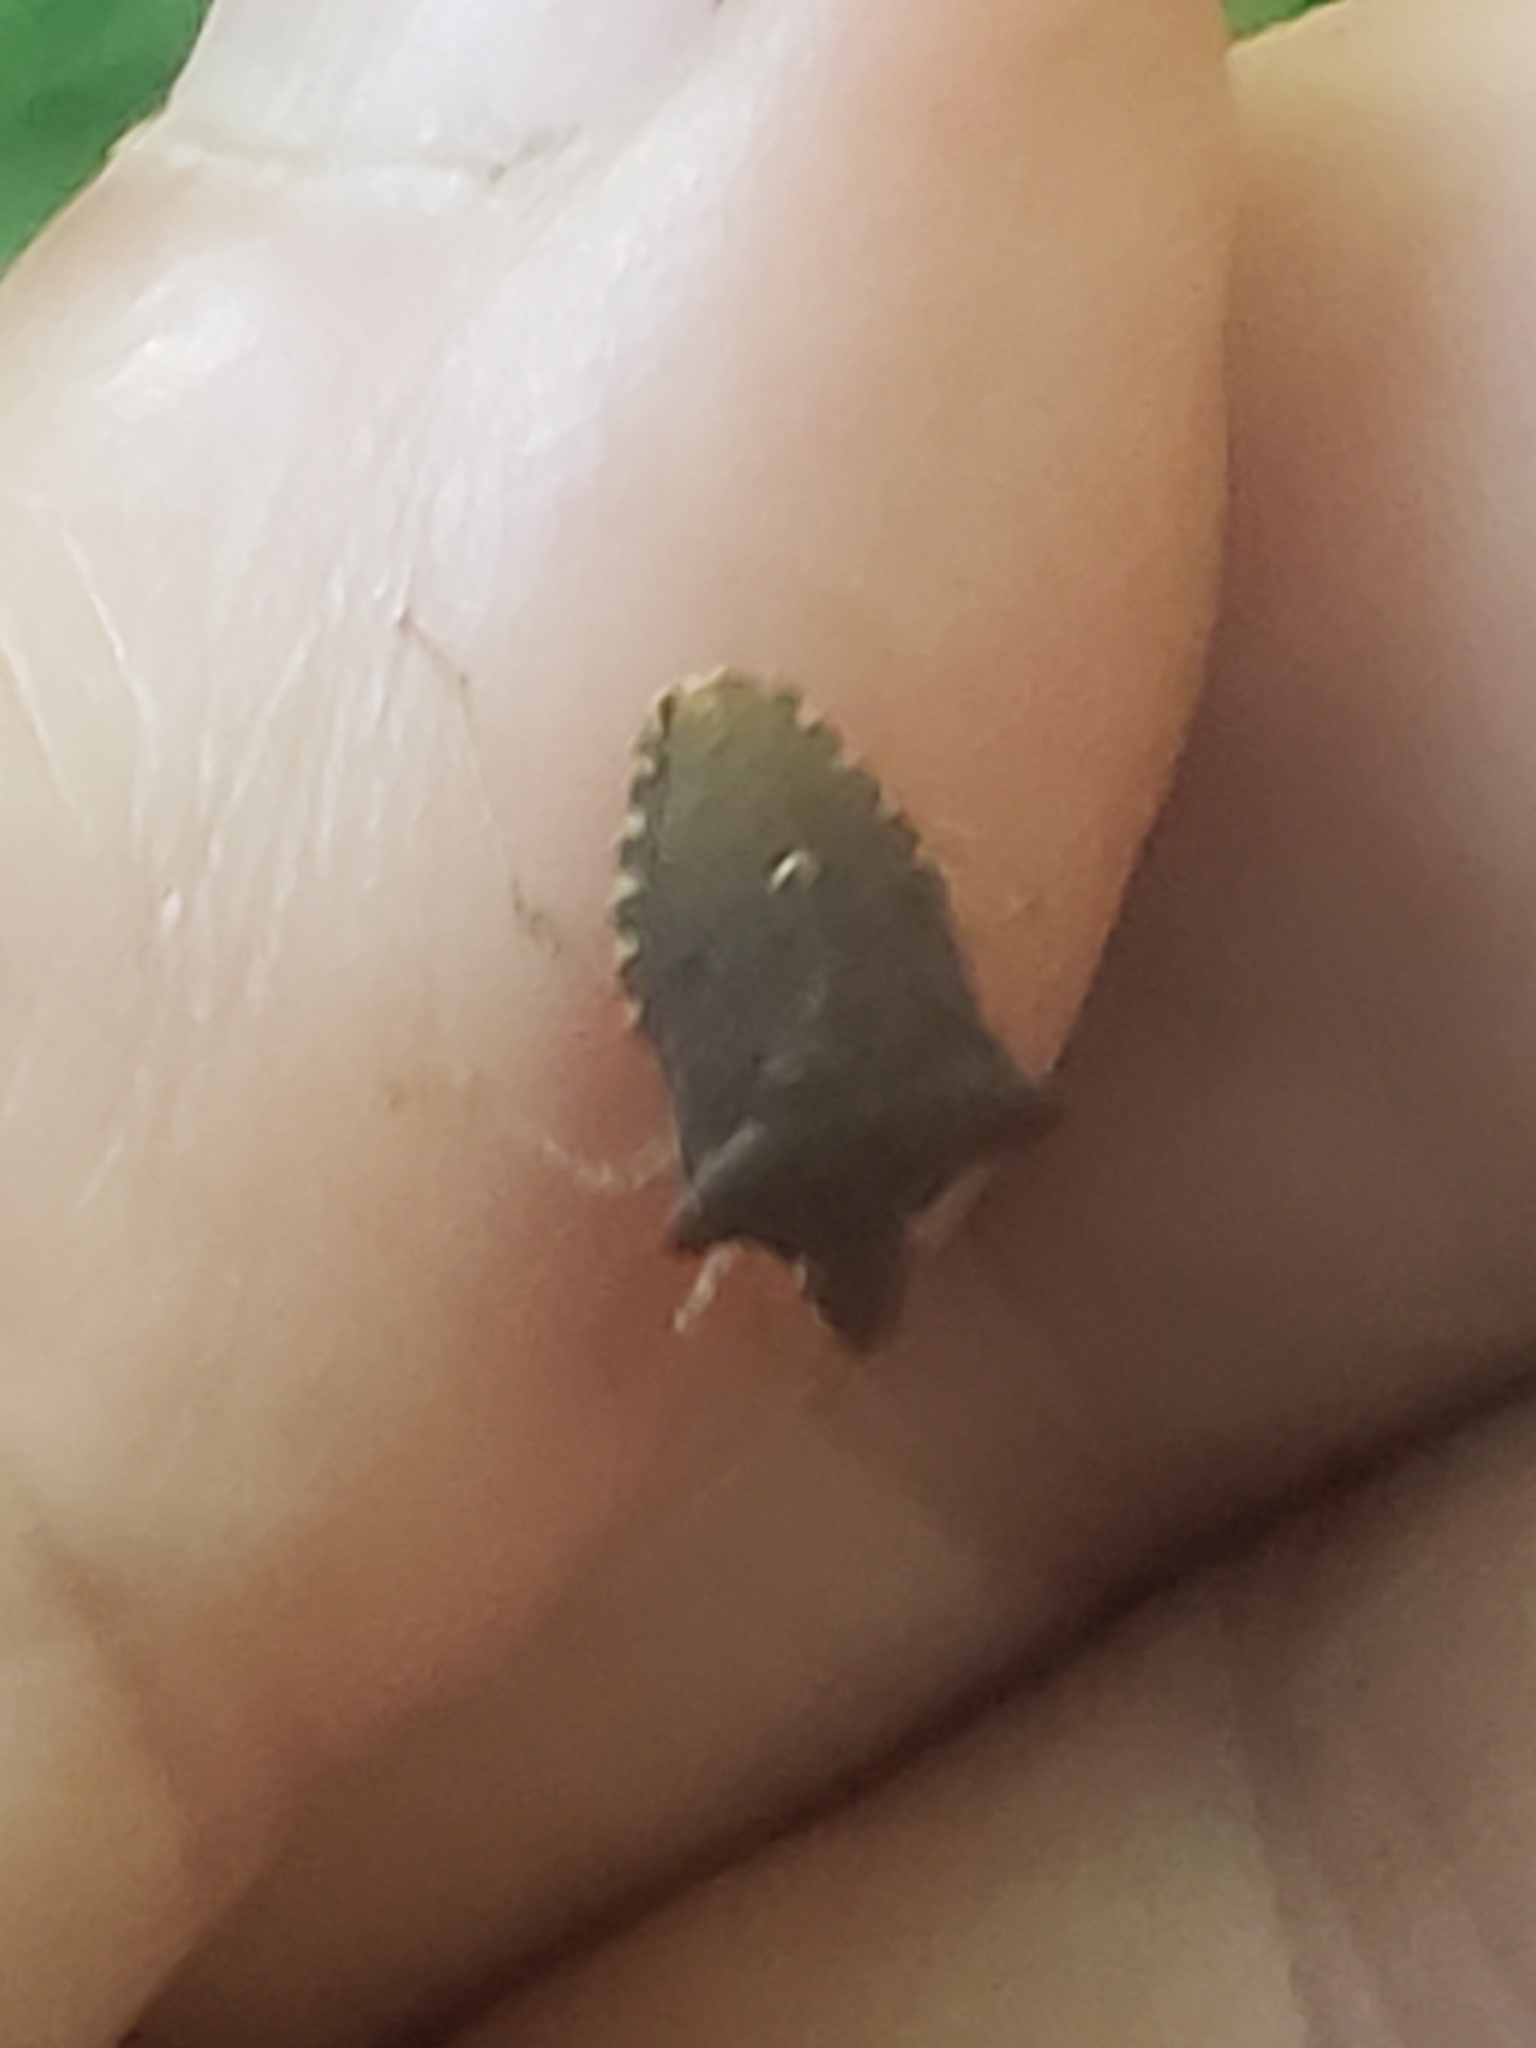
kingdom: Animalia
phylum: Arthropoda
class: Insecta
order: Hemiptera
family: Pentatomidae
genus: Euschistus
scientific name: Euschistus tristigmus
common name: Dusky stink bug
